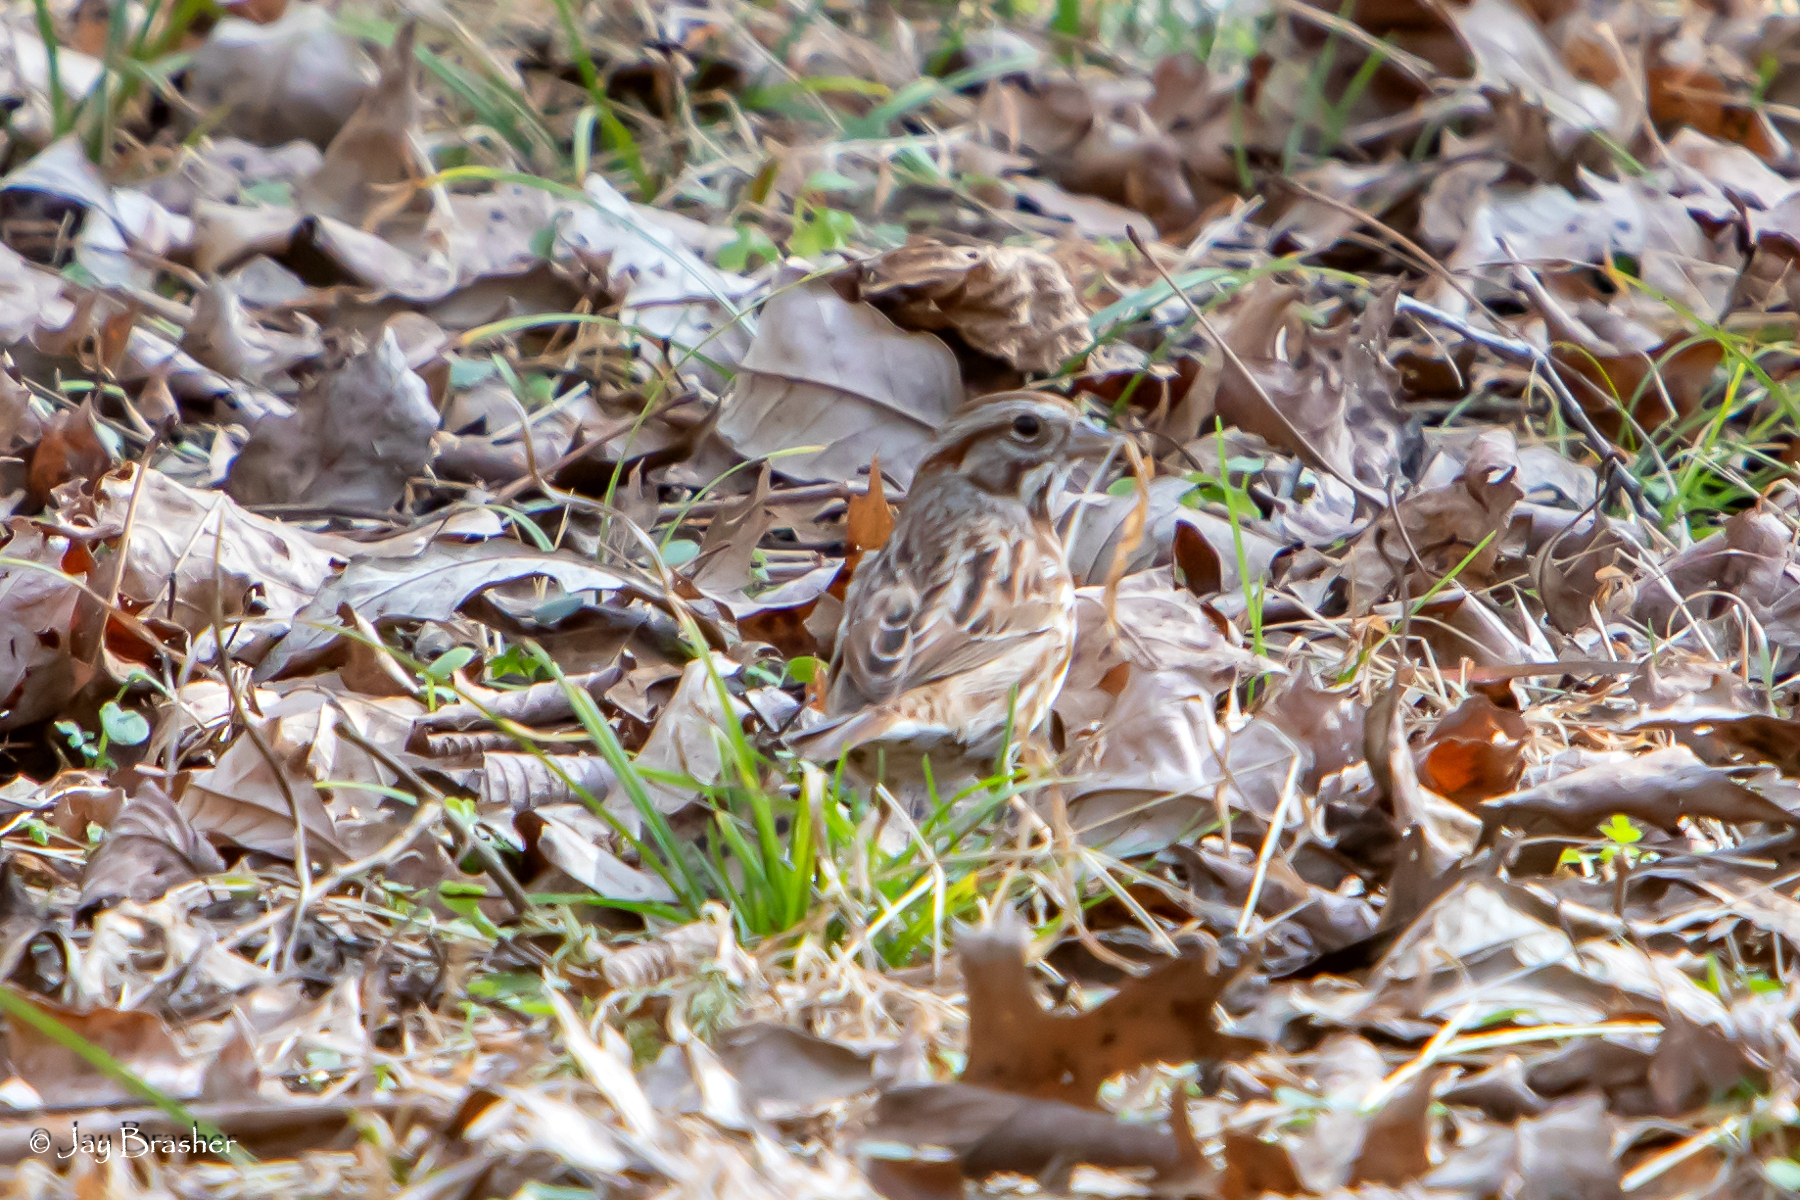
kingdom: Animalia
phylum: Chordata
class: Aves
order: Passeriformes
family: Passerellidae
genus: Melospiza
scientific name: Melospiza melodia
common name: Song sparrow
